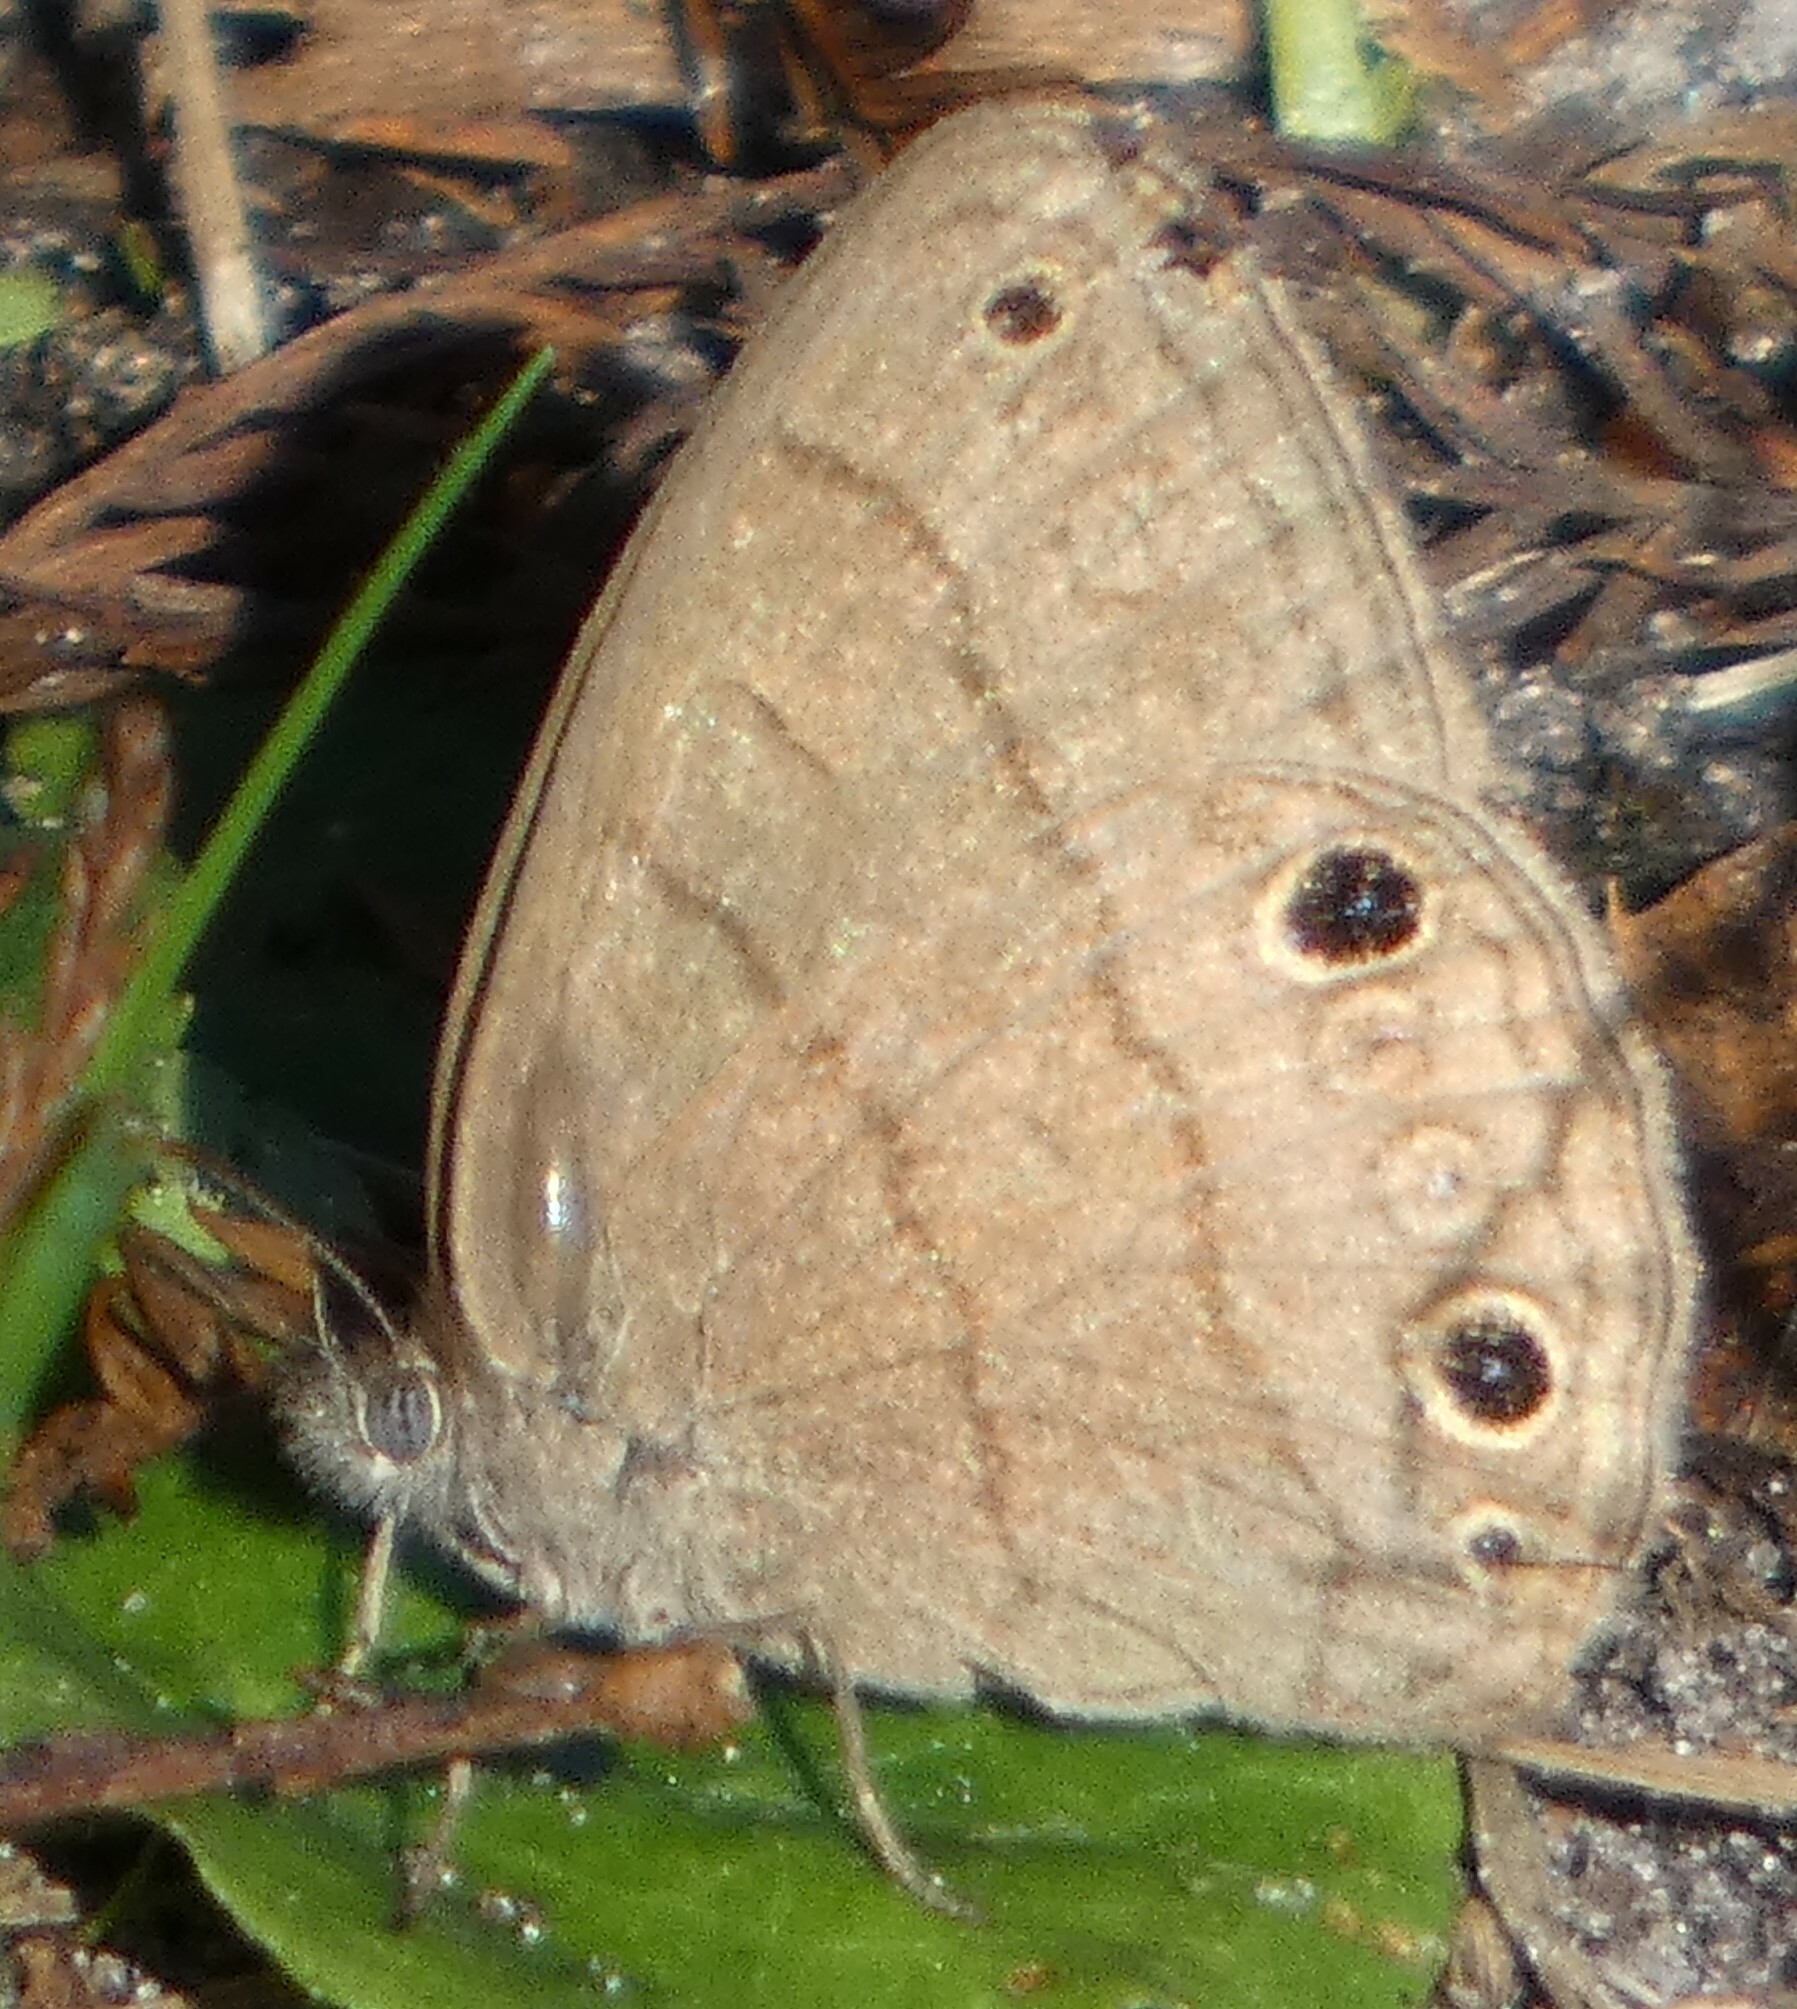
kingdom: Animalia
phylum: Arthropoda
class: Insecta
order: Lepidoptera
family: Nymphalidae
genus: Hermeuptychia
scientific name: Hermeuptychia hermes
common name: Hermes satyr
